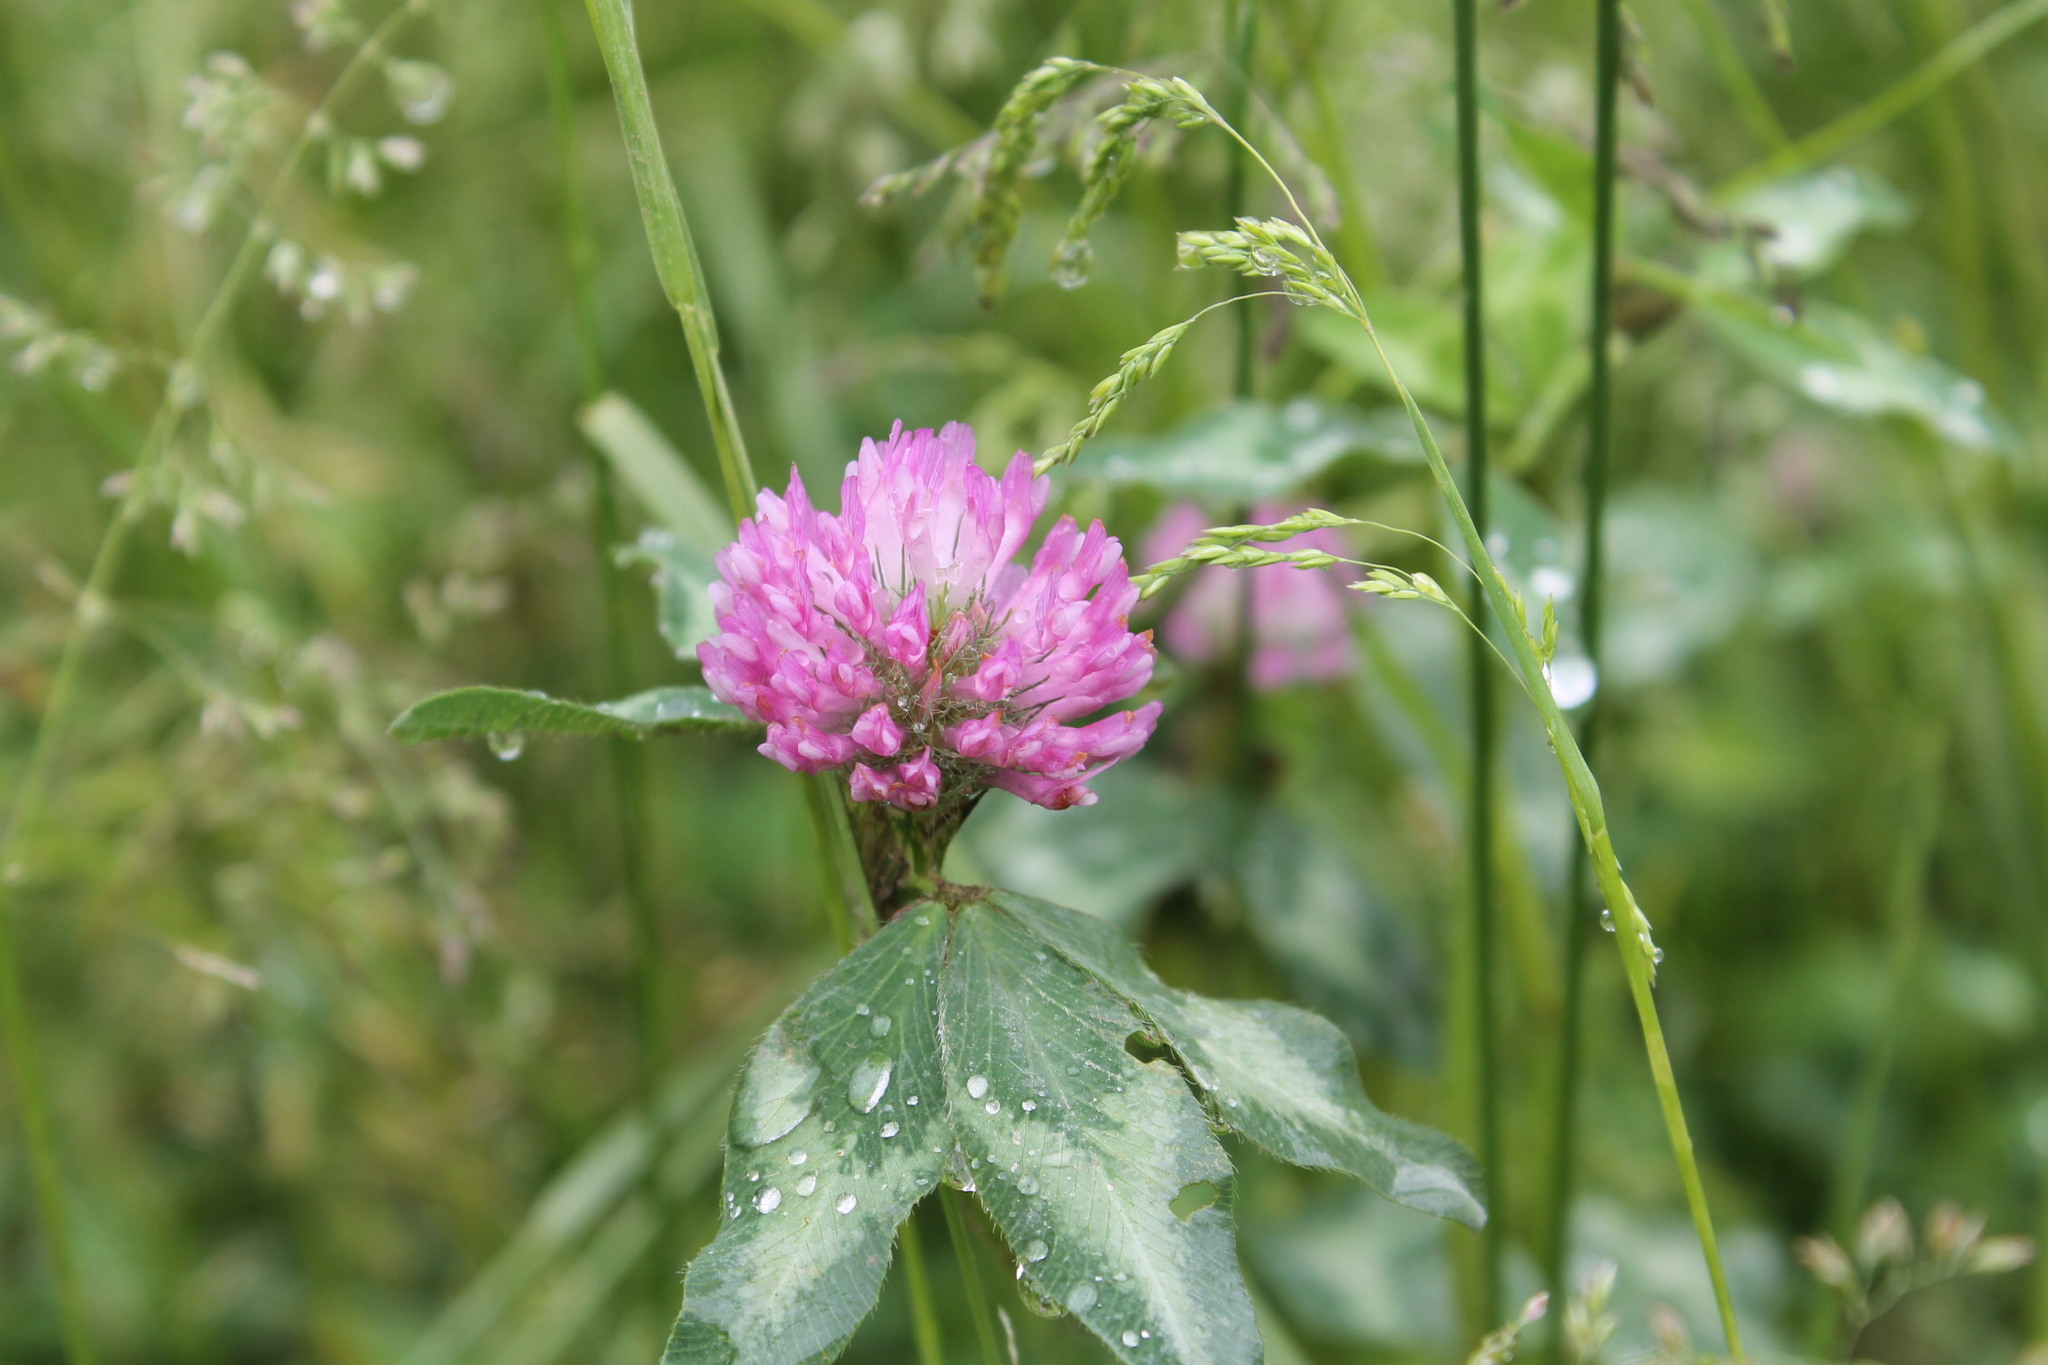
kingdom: Plantae
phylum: Tracheophyta
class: Magnoliopsida
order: Fabales
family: Fabaceae
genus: Trifolium
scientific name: Trifolium pratense
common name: Red clover
